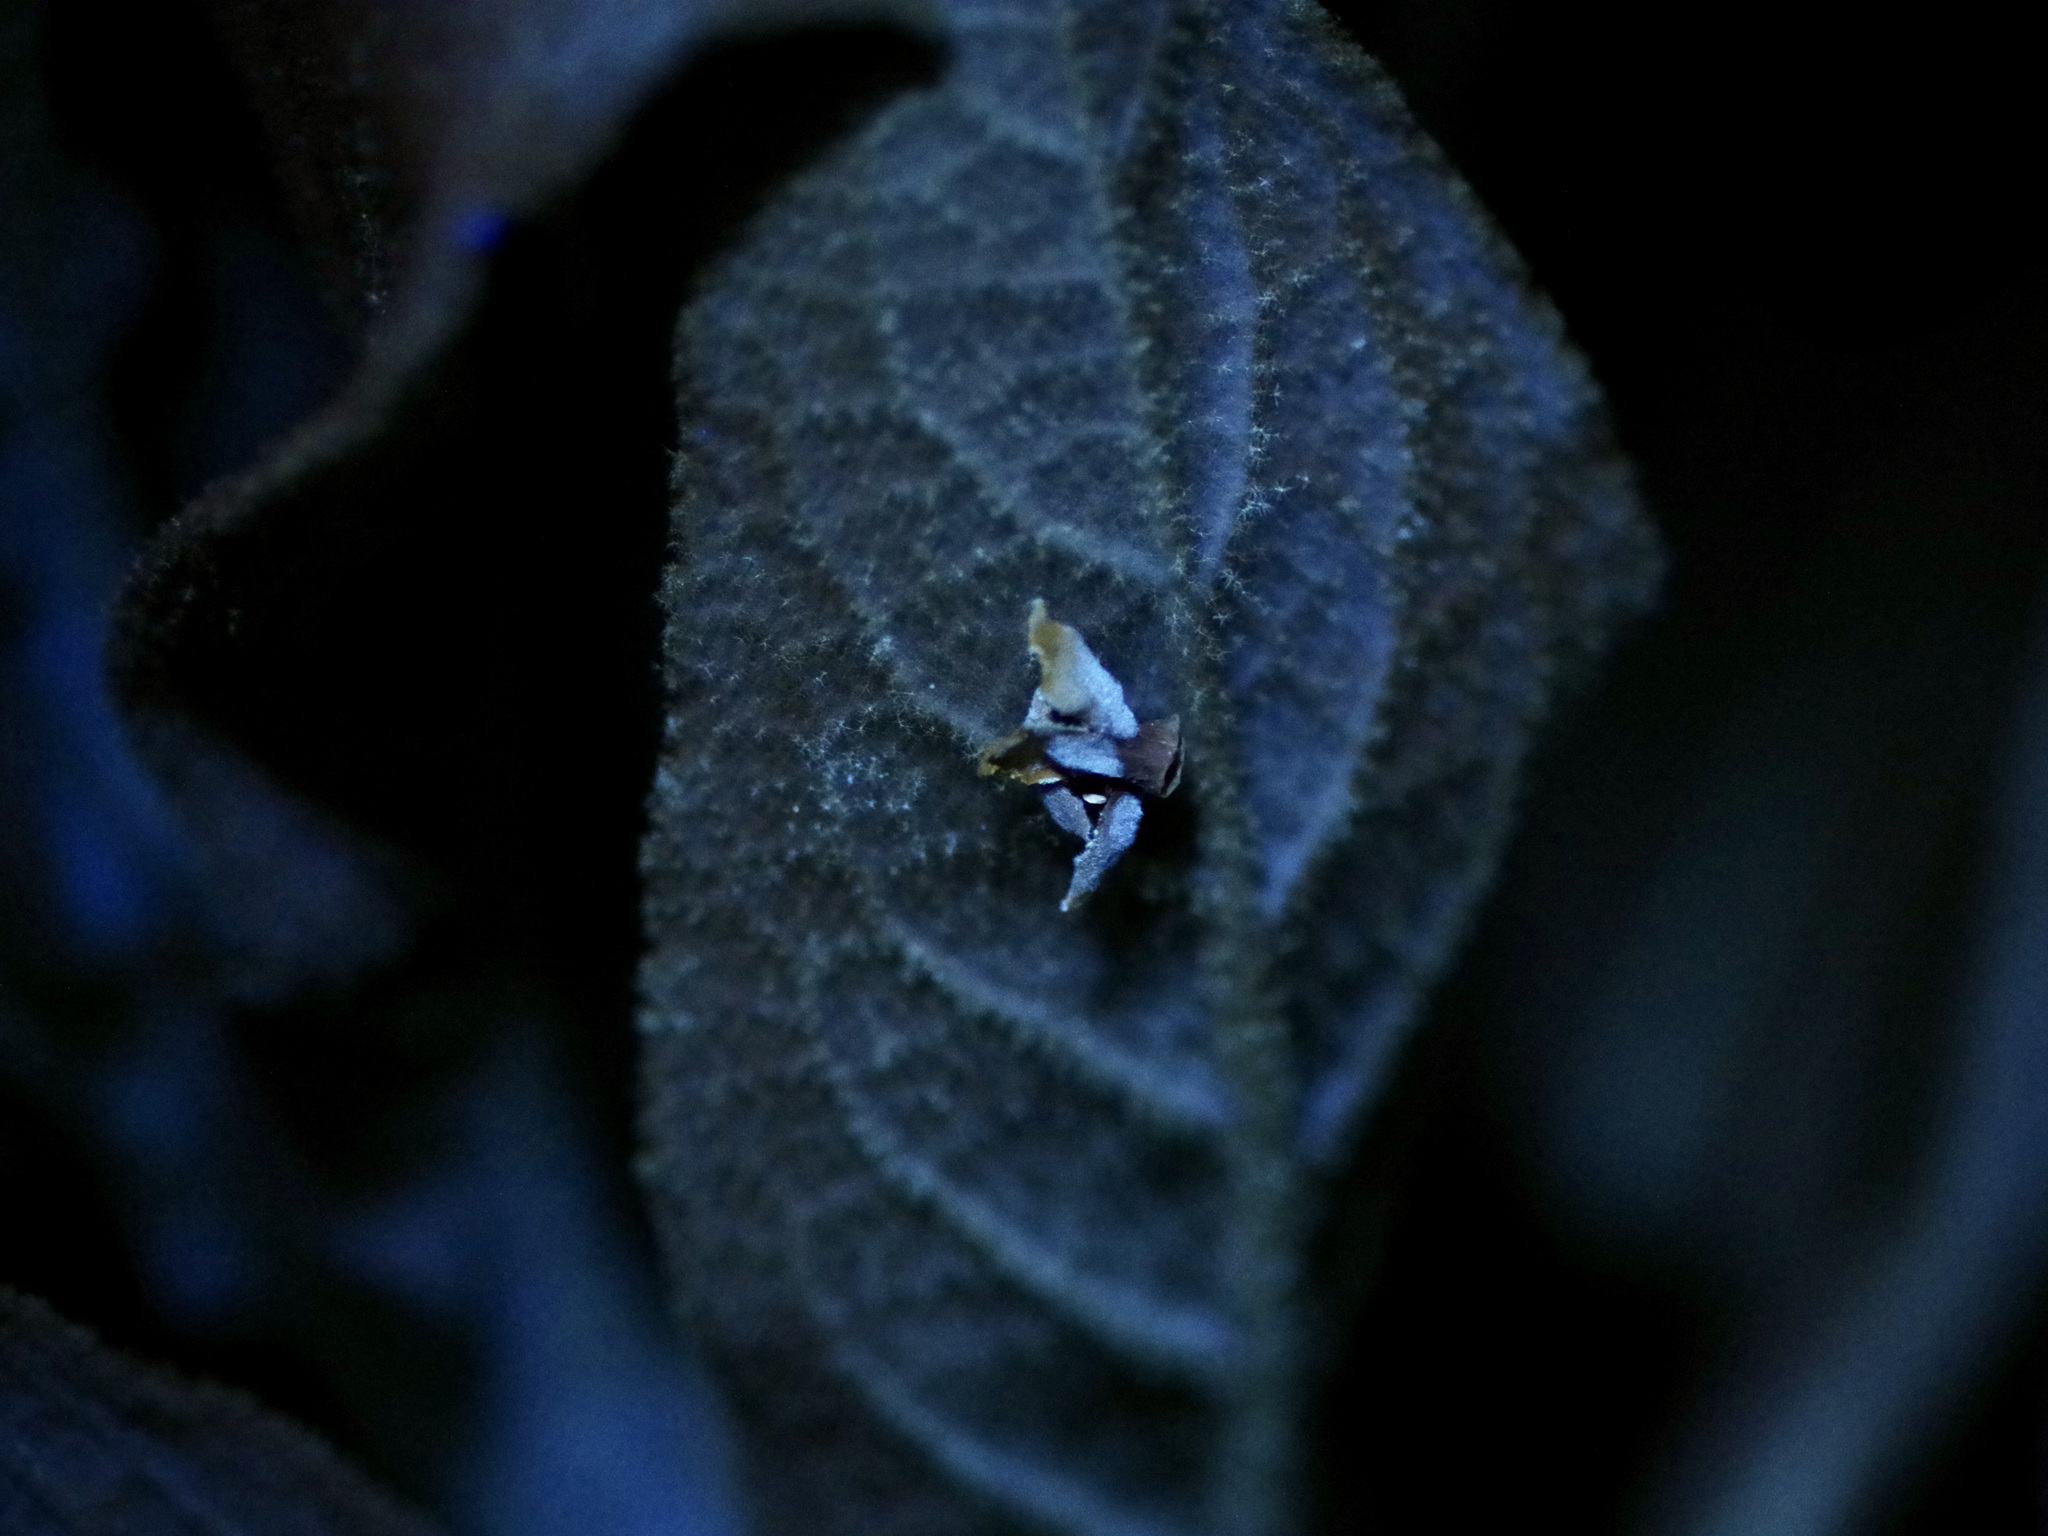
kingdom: Plantae
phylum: Tracheophyta
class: Magnoliopsida
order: Lamiales
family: Scrophulariaceae
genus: Verbascum
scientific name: Verbascum thapsus
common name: Common mullein
